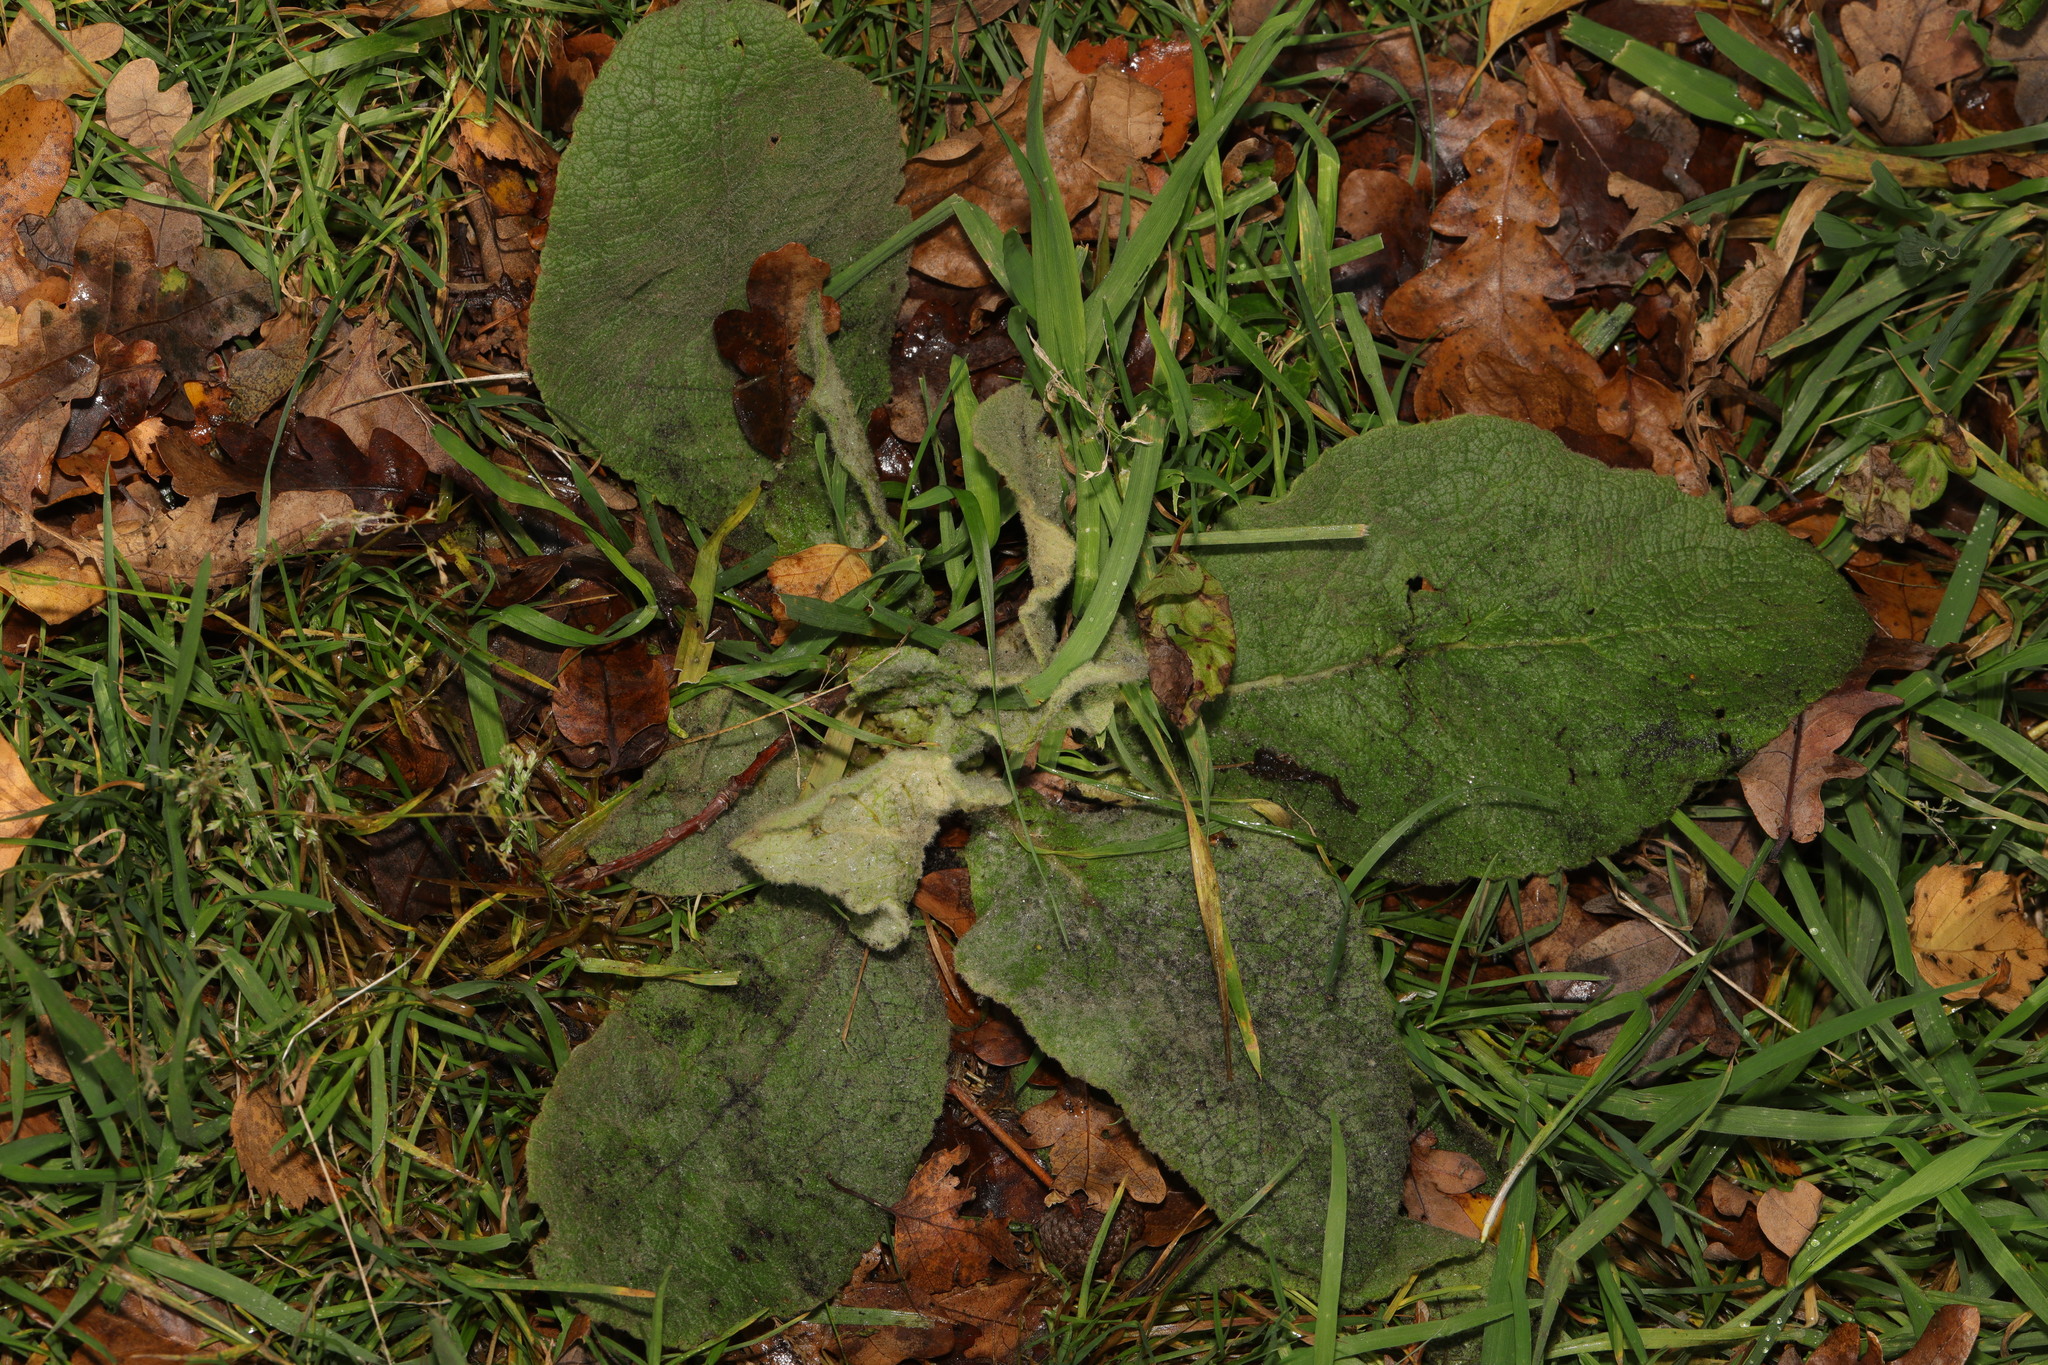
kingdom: Plantae
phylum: Tracheophyta
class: Magnoliopsida
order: Lamiales
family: Scrophulariaceae
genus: Verbascum
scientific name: Verbascum thapsus
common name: Common mullein
